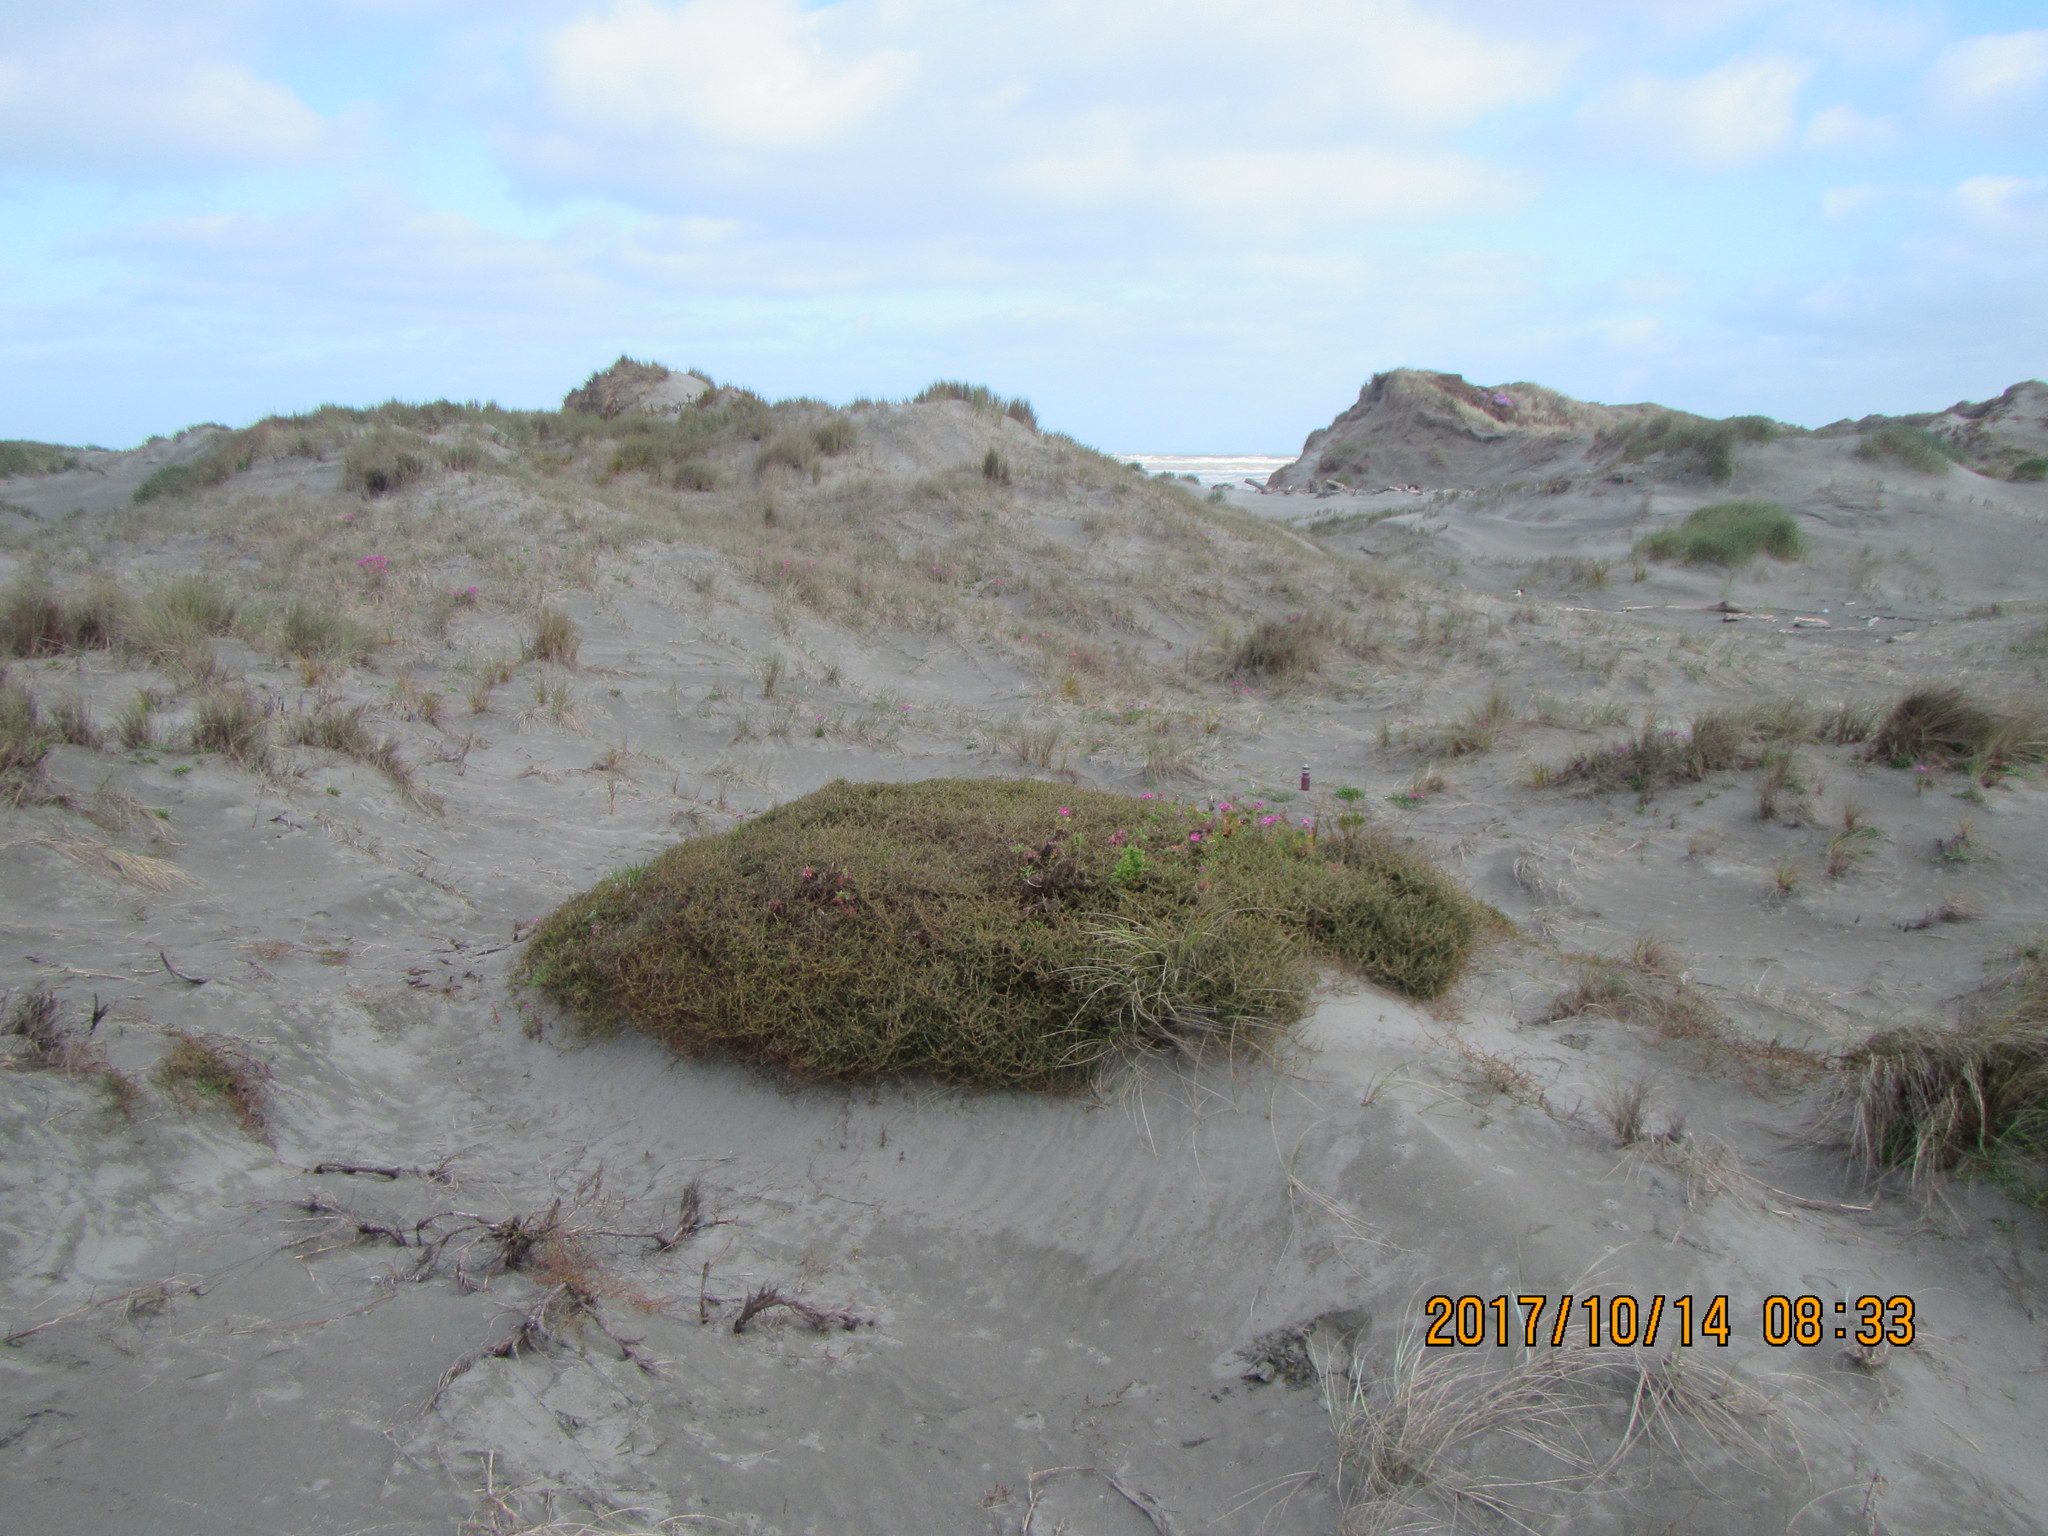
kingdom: Plantae
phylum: Tracheophyta
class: Magnoliopsida
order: Gentianales
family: Rubiaceae
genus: Coprosma
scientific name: Coprosma acerosa
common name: Sand coprosma
